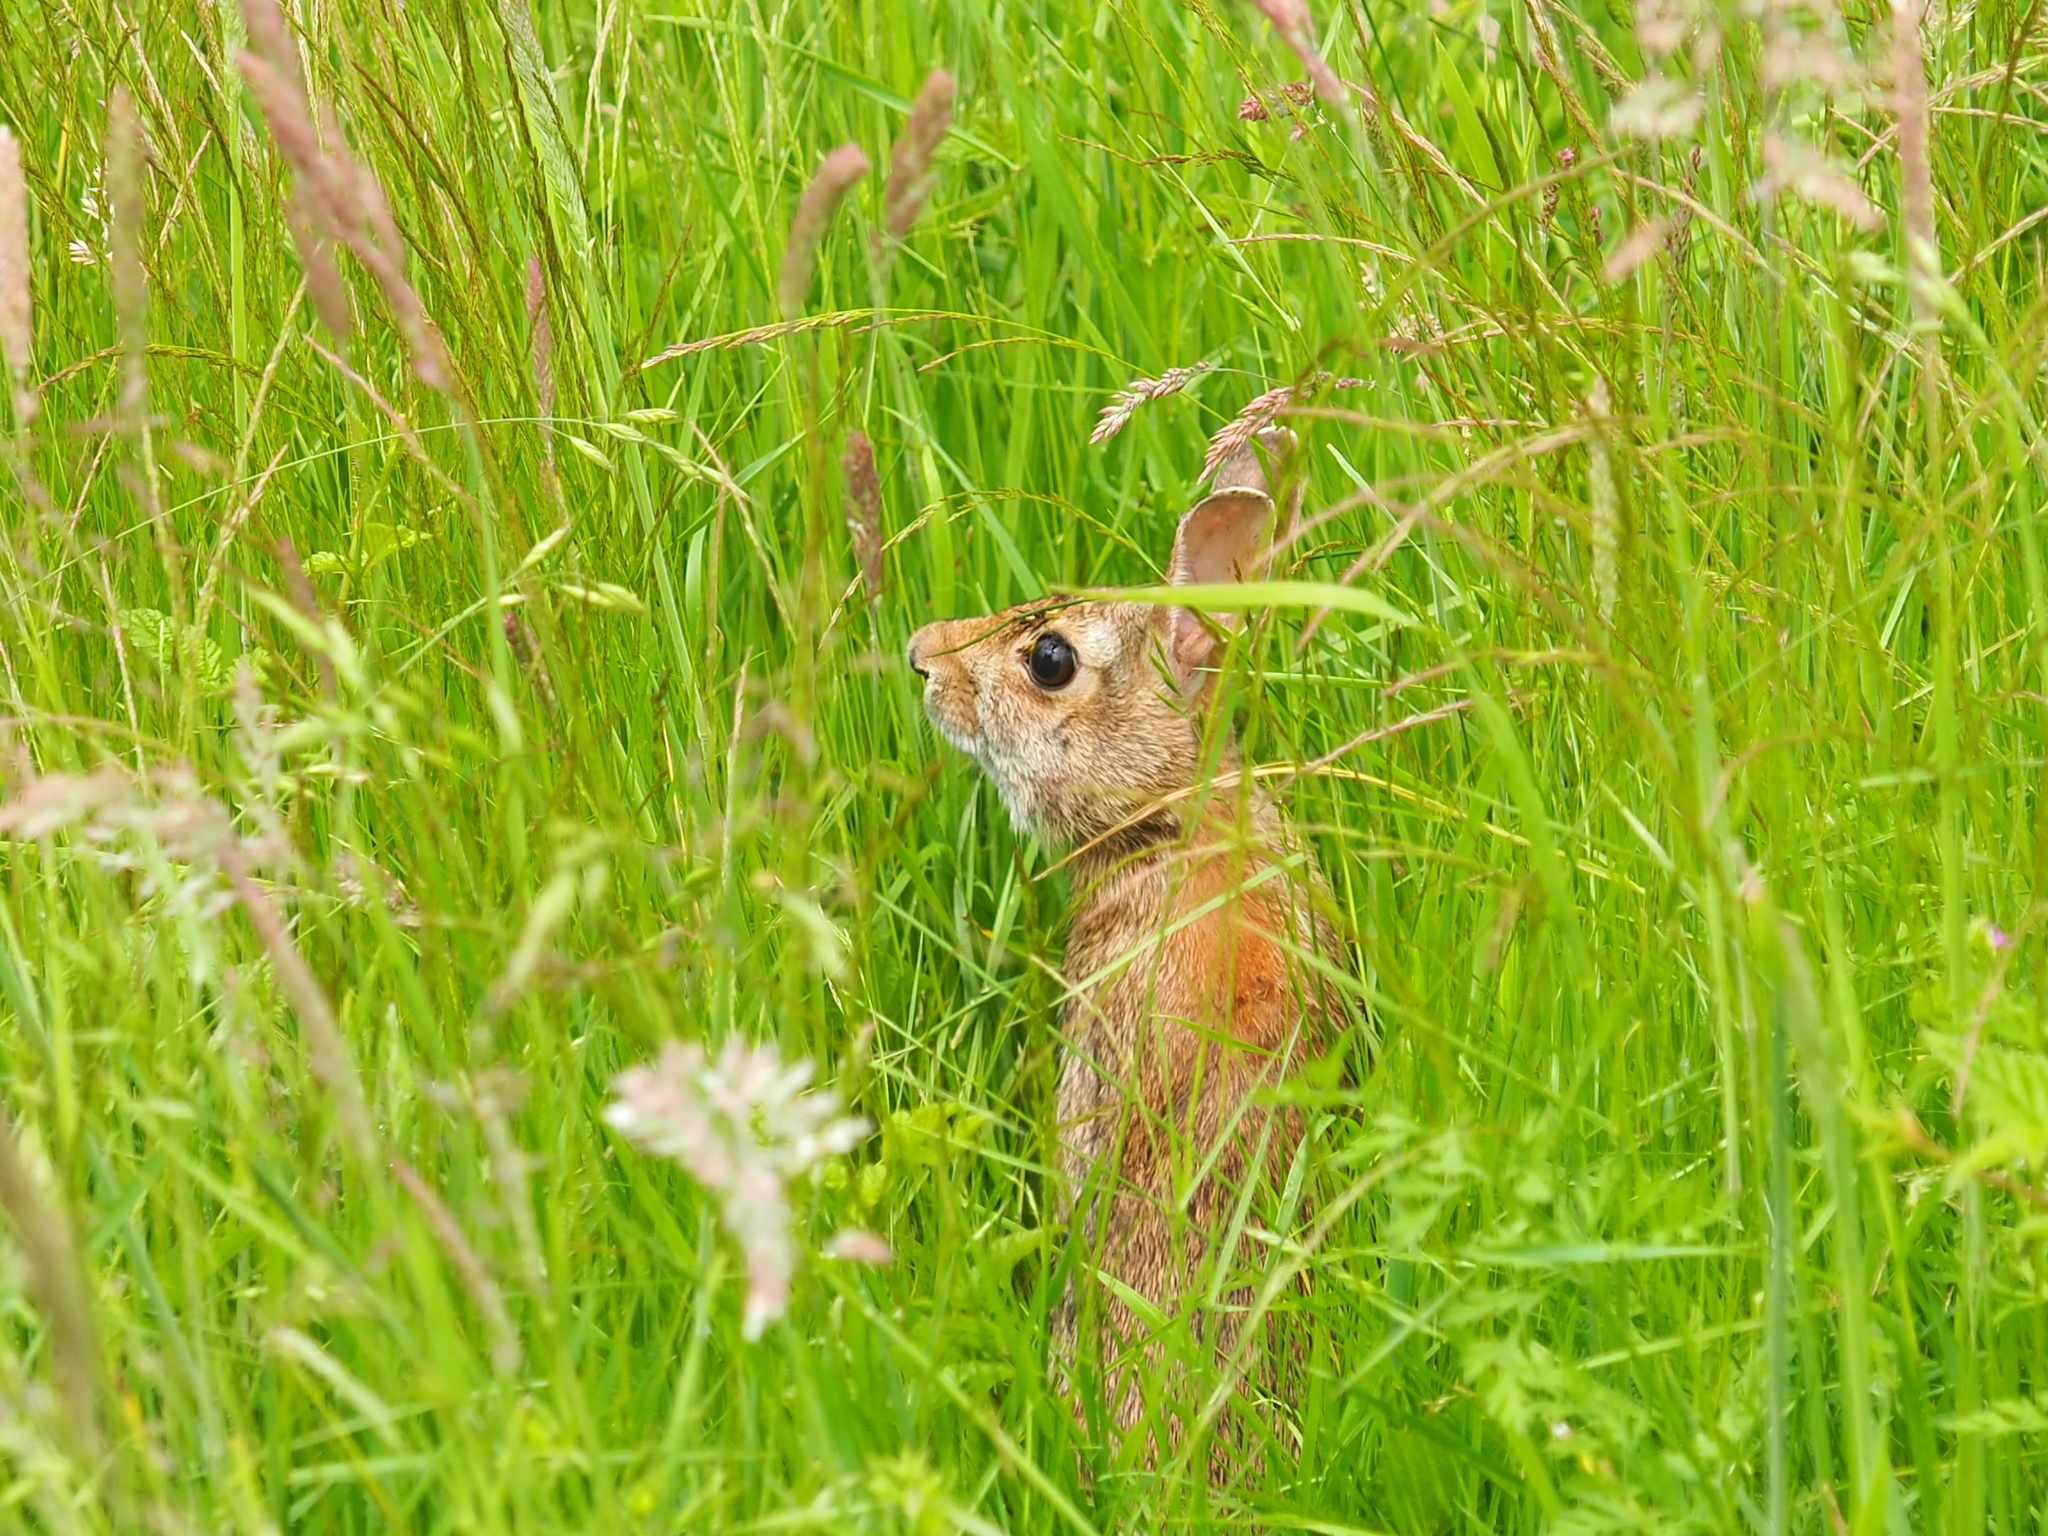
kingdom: Animalia
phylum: Chordata
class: Mammalia
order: Lagomorpha
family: Leporidae
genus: Sylvilagus
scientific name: Sylvilagus floridanus
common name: Eastern cottontail
